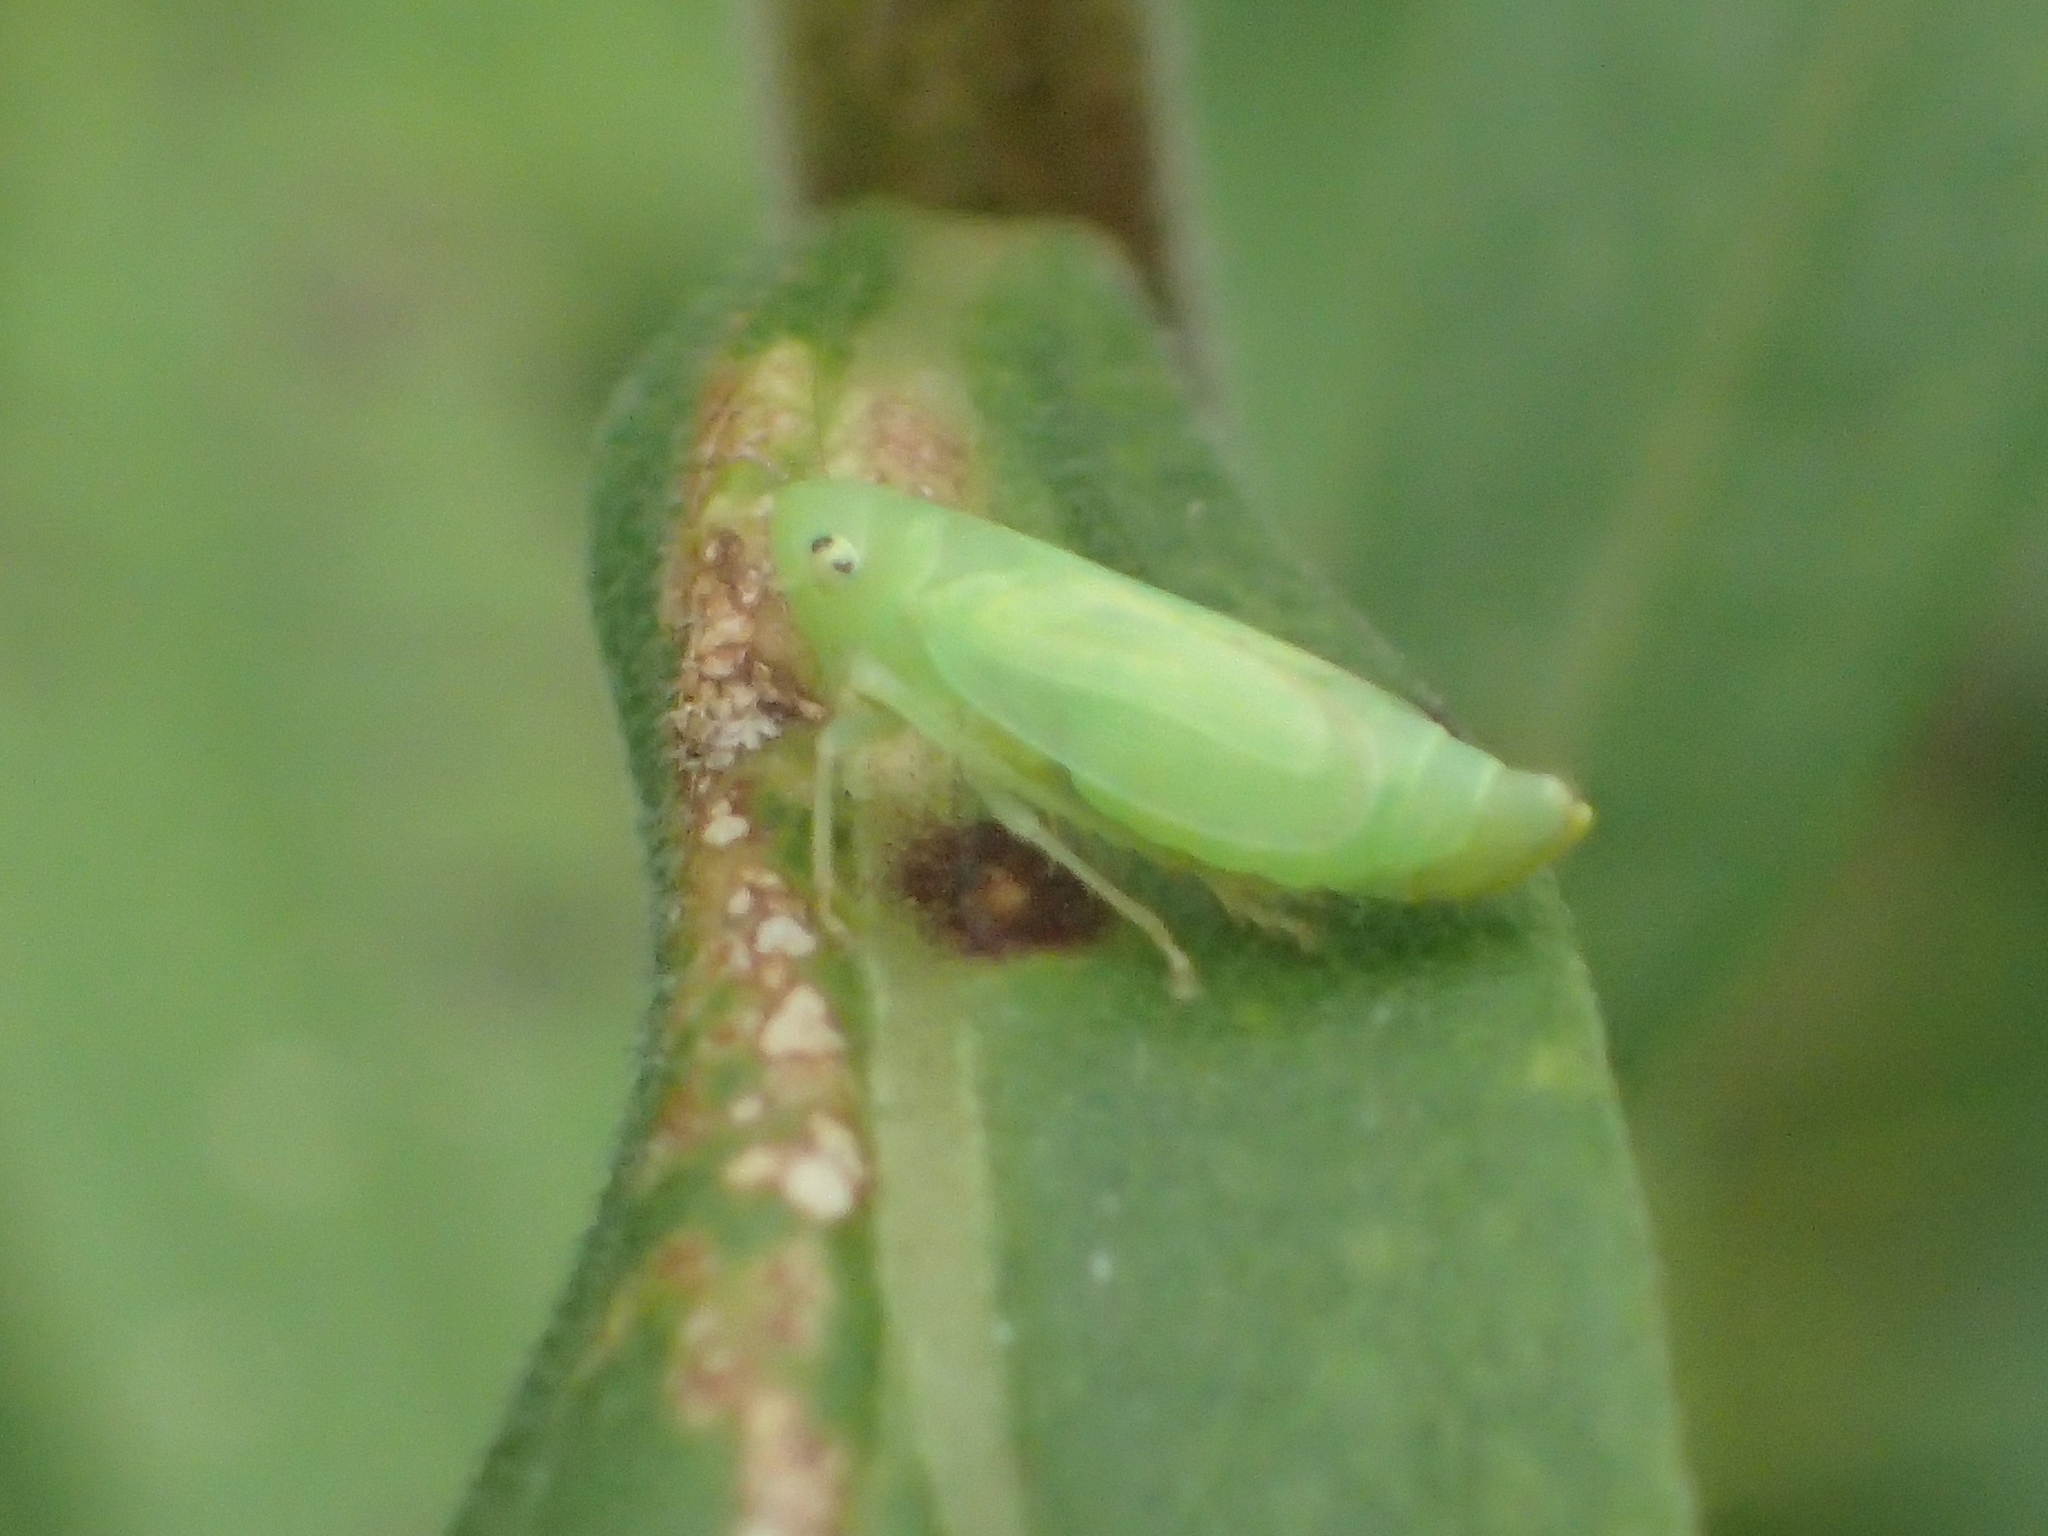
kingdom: Animalia
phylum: Arthropoda
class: Insecta
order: Hemiptera
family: Cicadellidae
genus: Neocoelidia
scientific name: Neocoelidia tumidifrons
